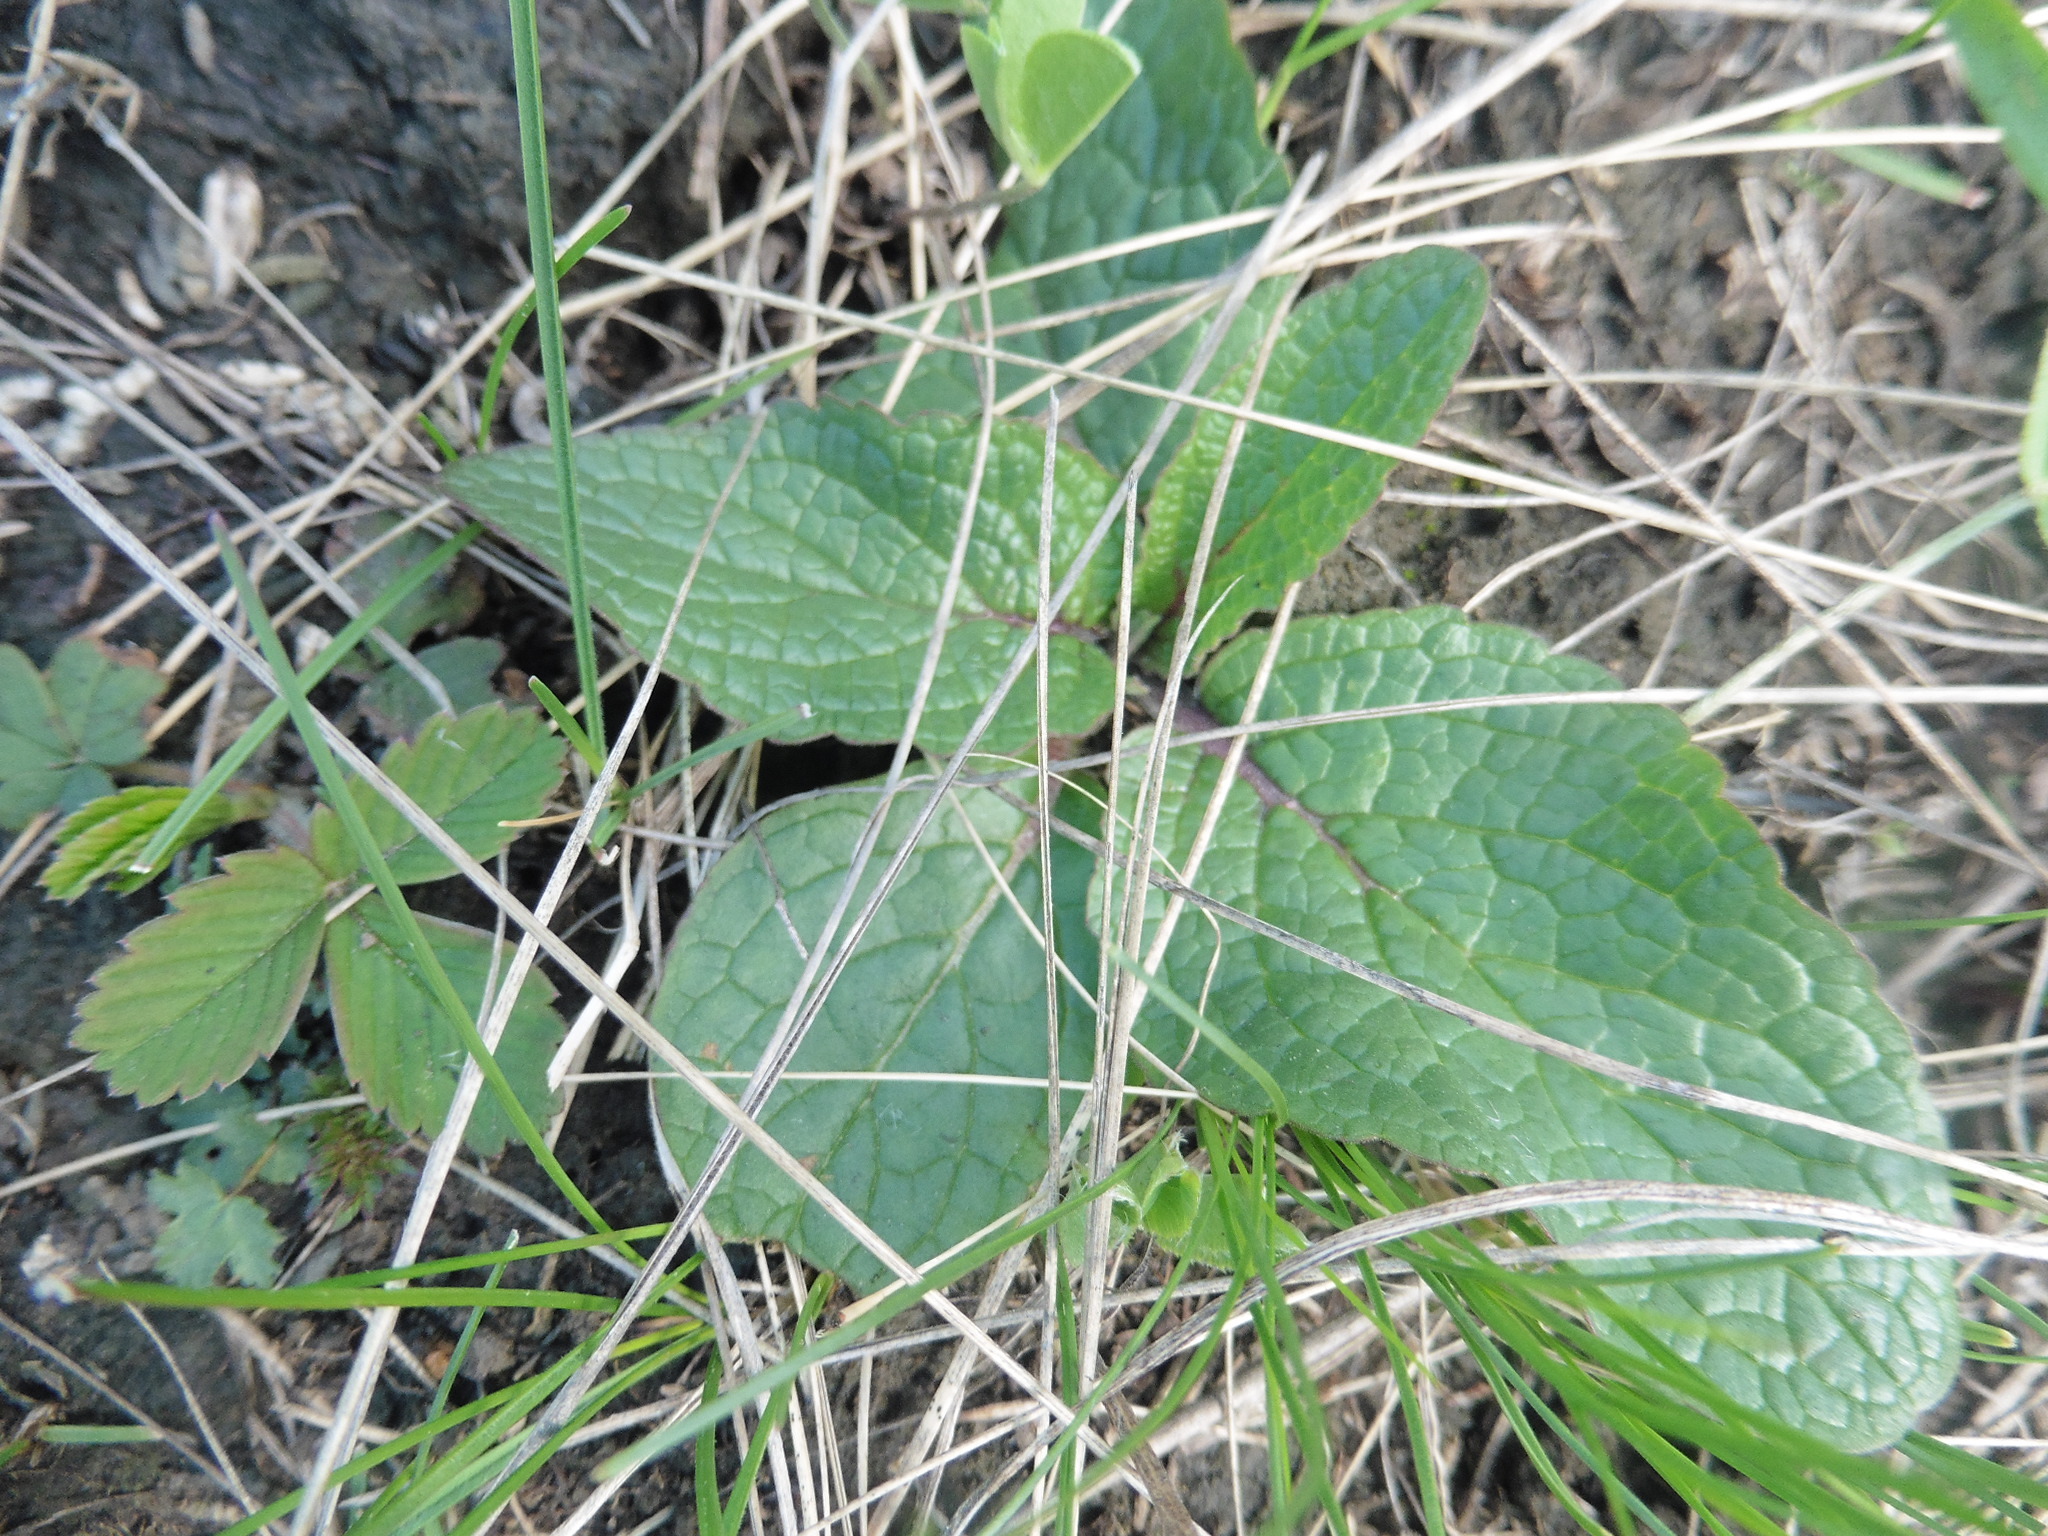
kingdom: Plantae
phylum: Tracheophyta
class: Magnoliopsida
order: Lamiales
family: Scrophulariaceae
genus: Verbascum
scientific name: Verbascum phoeniceum
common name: Purple mullein
